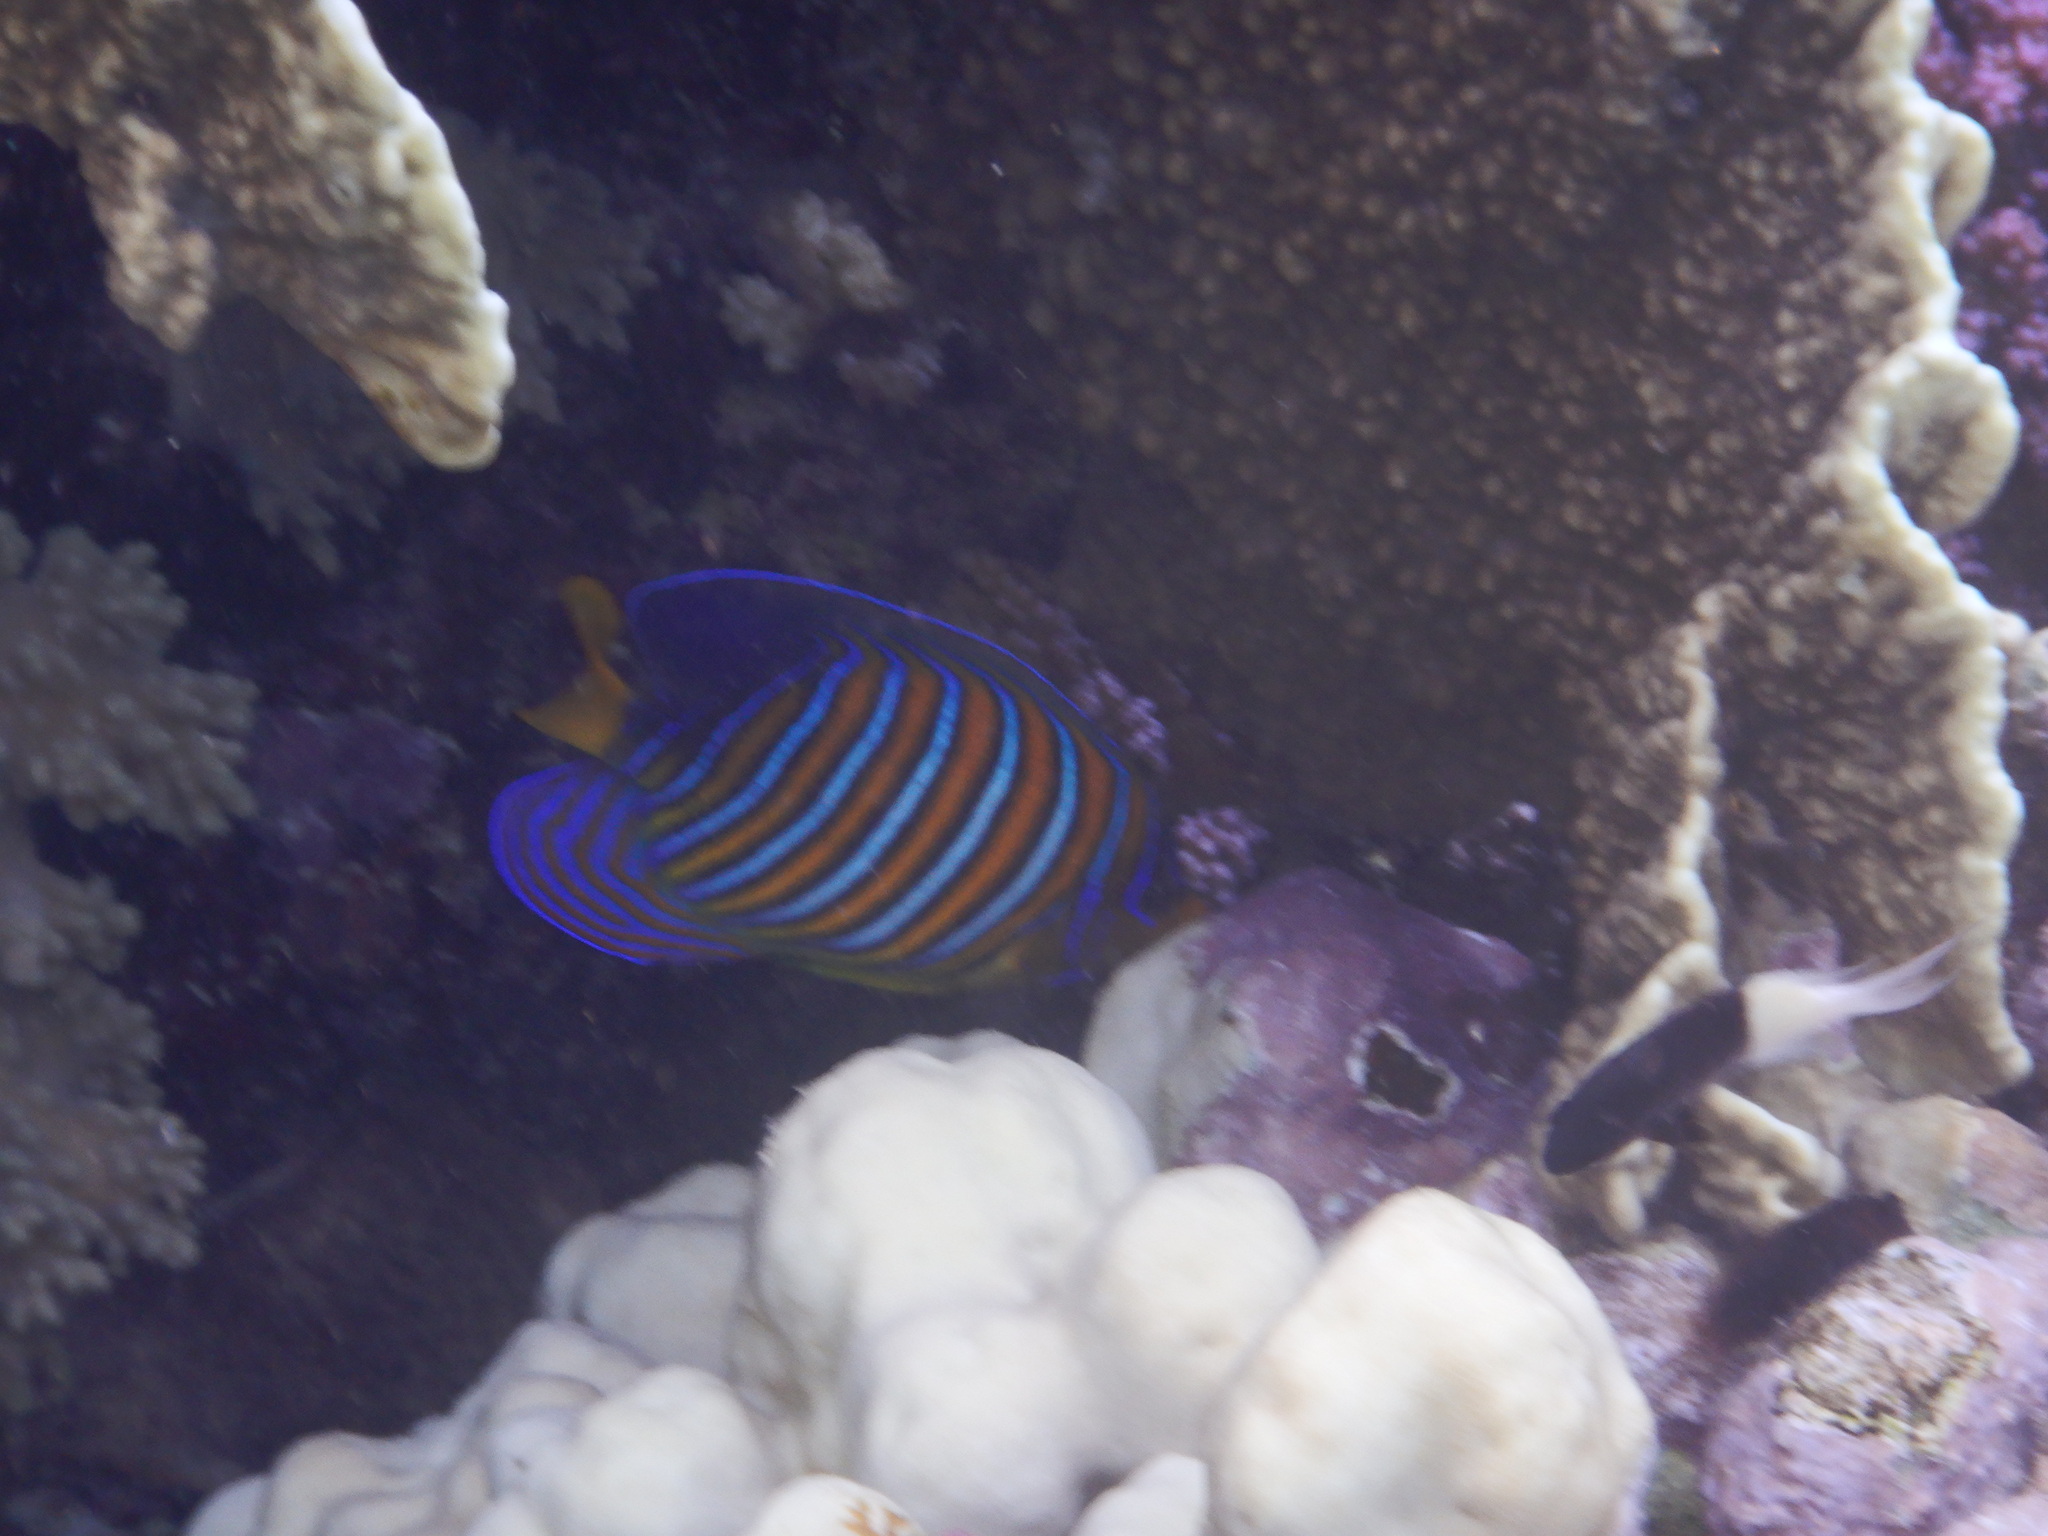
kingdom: Animalia
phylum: Chordata
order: Perciformes
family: Pomacanthidae
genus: Pygoplites
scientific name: Pygoplites diacanthus
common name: Regal angelfish
